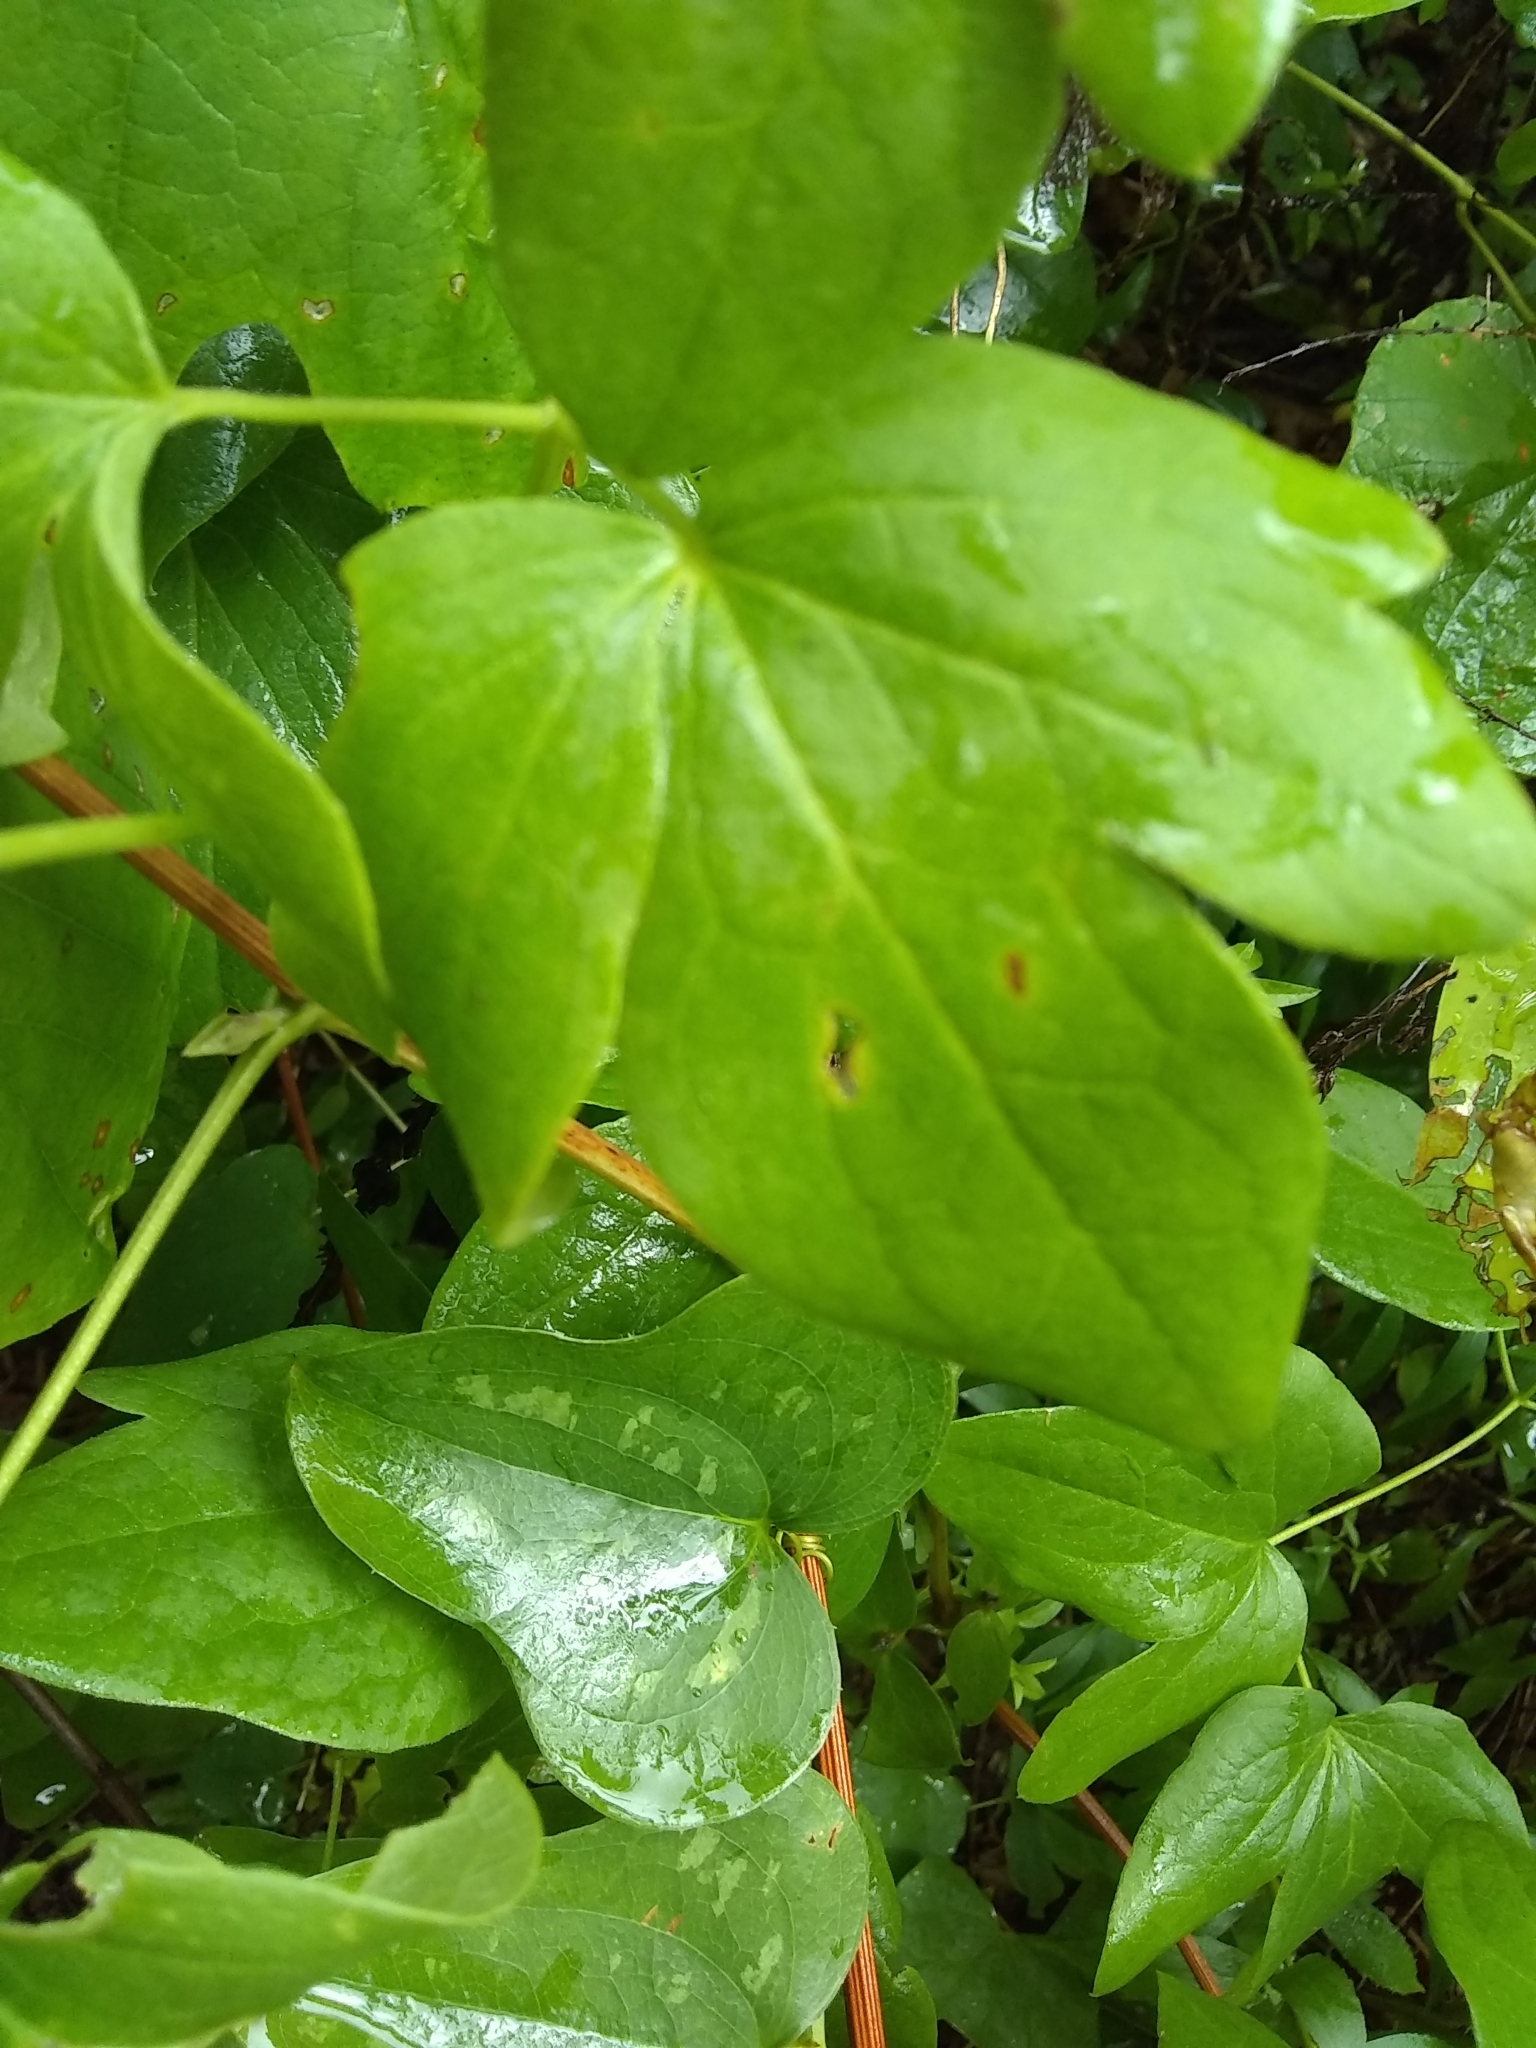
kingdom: Plantae
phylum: Tracheophyta
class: Magnoliopsida
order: Ranunculales
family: Ranunculaceae
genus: Clematis
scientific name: Clematis pitcheri
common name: Bellflower clematis
